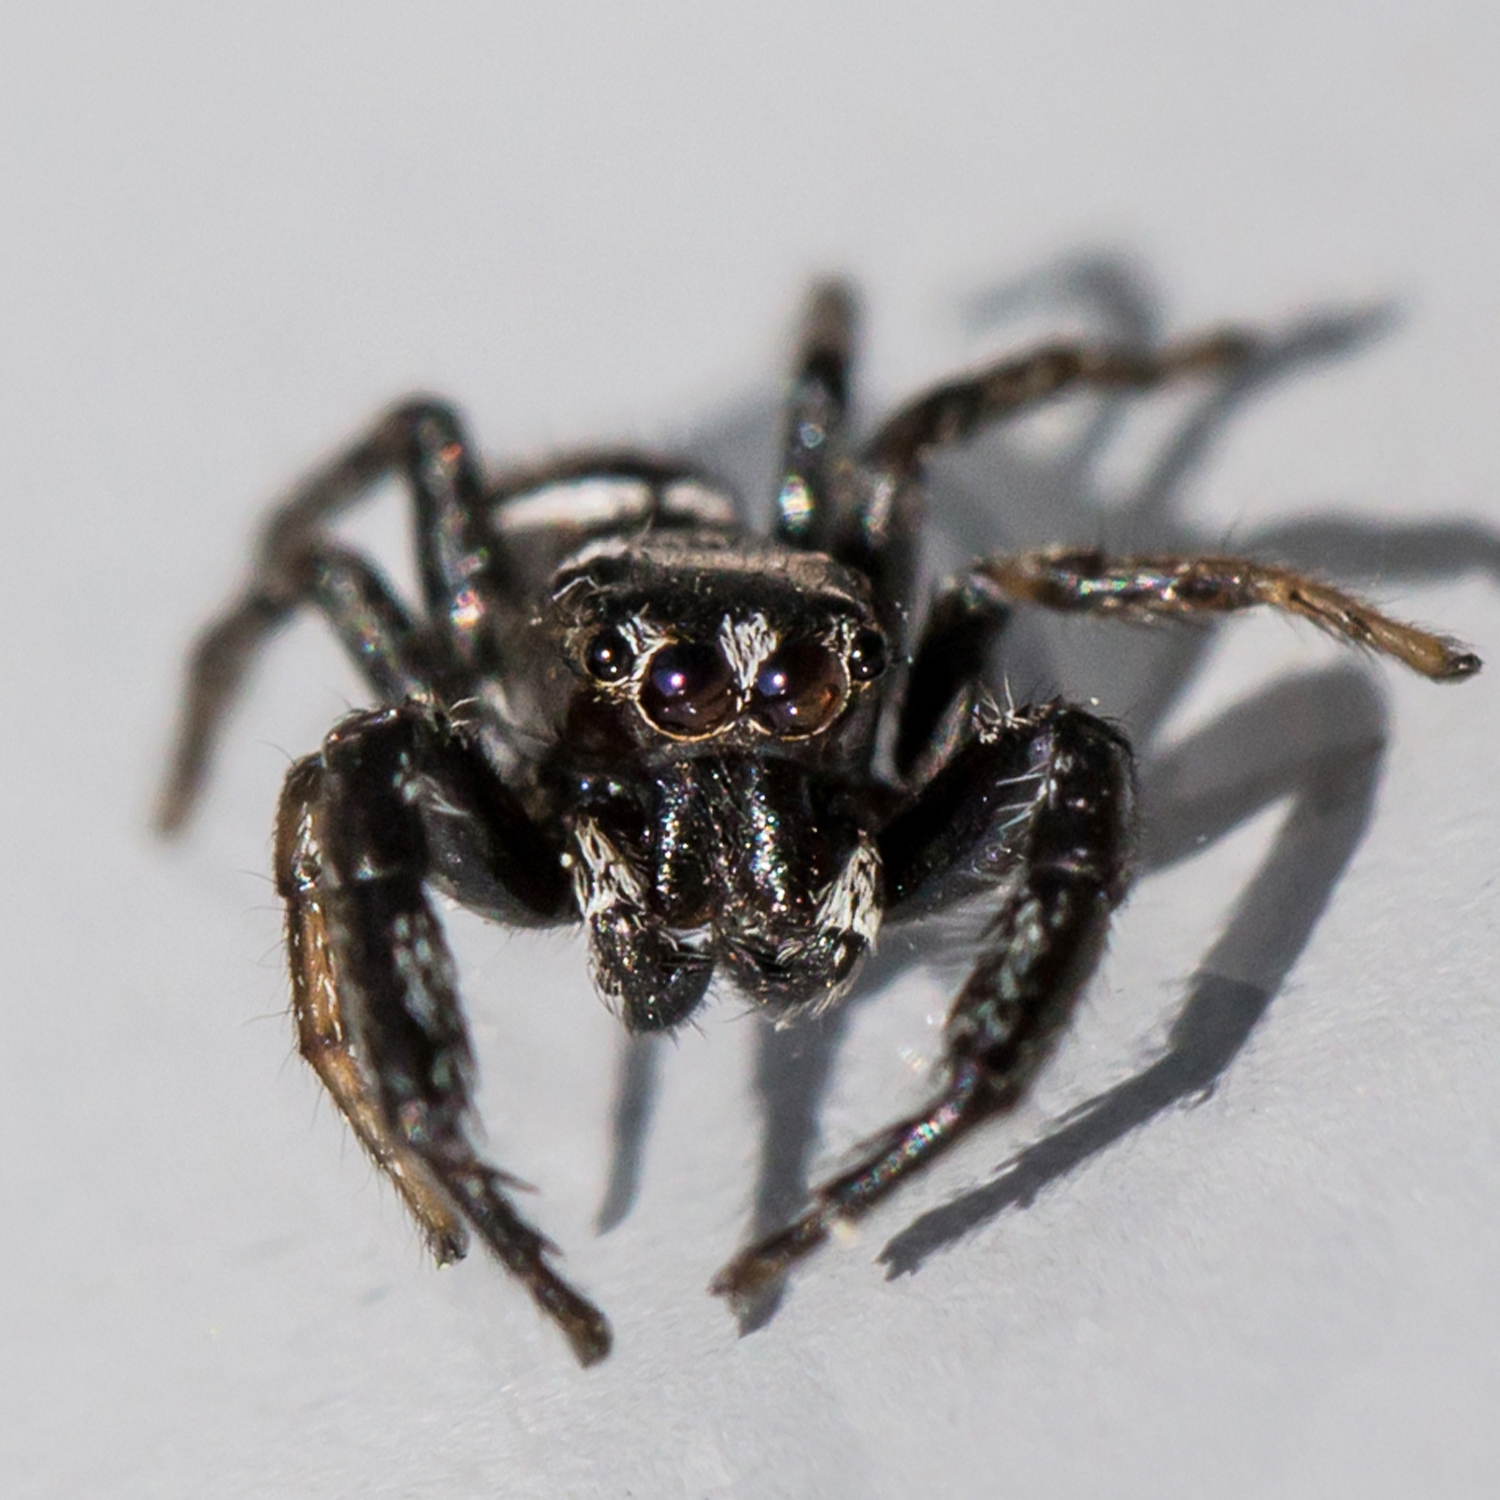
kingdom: Animalia
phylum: Arthropoda
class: Arachnida
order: Araneae
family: Salticidae
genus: Marpissa
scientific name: Marpissa formosa
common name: Short-bellied slender jumping spider
